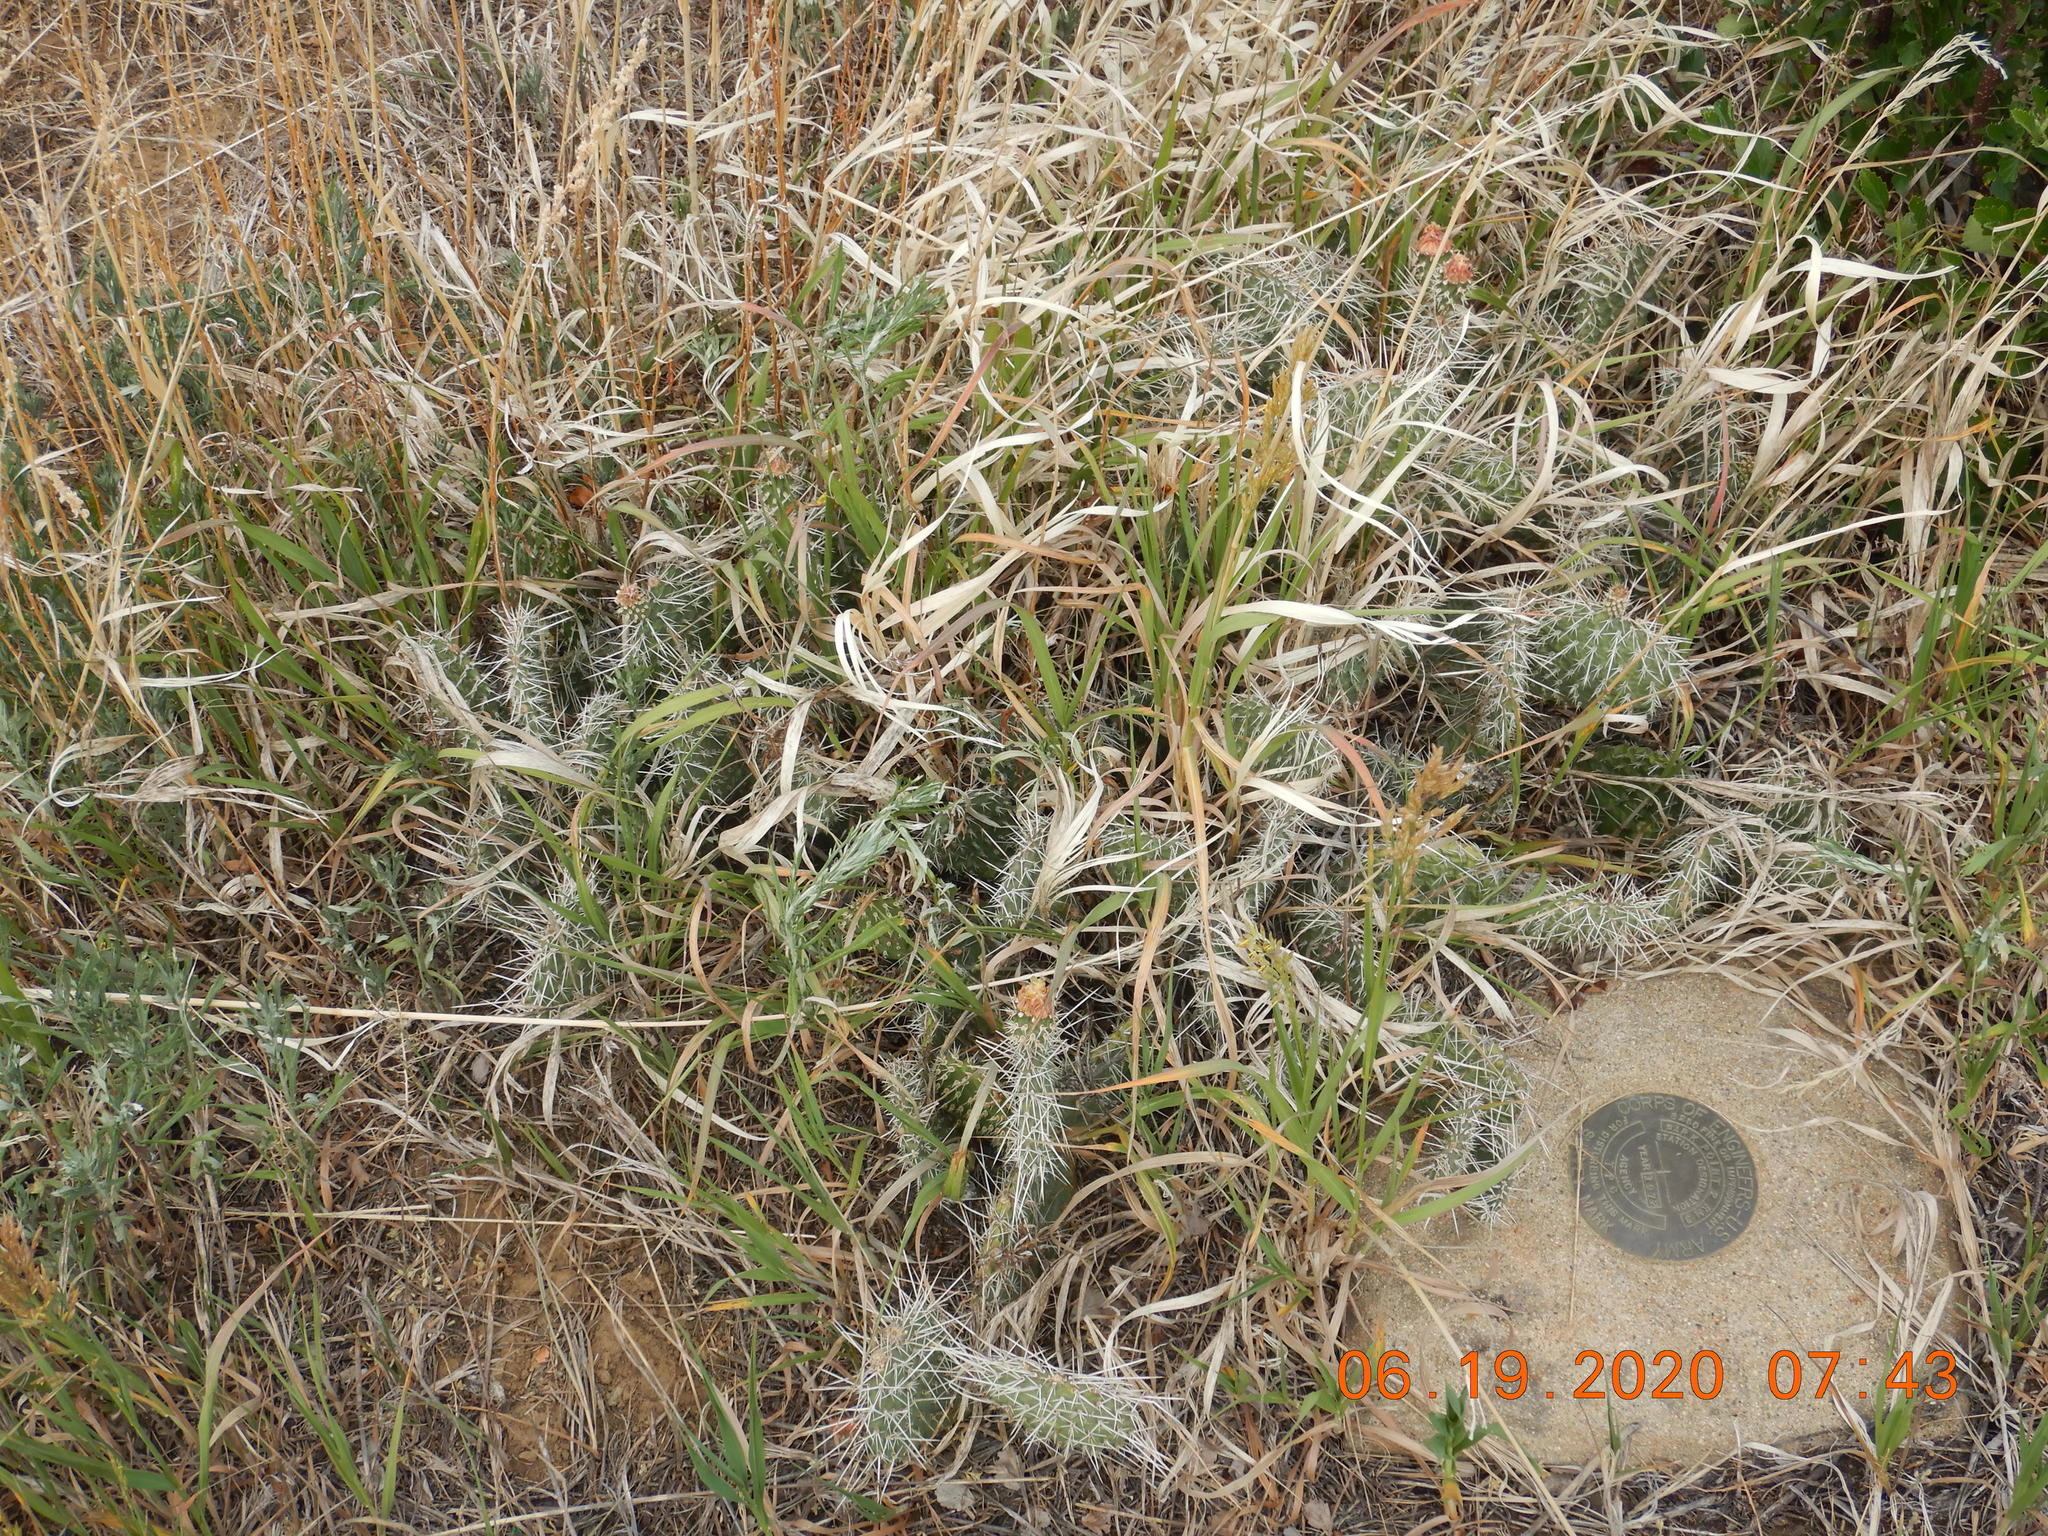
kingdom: Plantae
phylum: Tracheophyta
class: Magnoliopsida
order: Caryophyllales
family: Cactaceae
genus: Opuntia
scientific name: Opuntia polyacantha
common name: Plains prickly-pear
